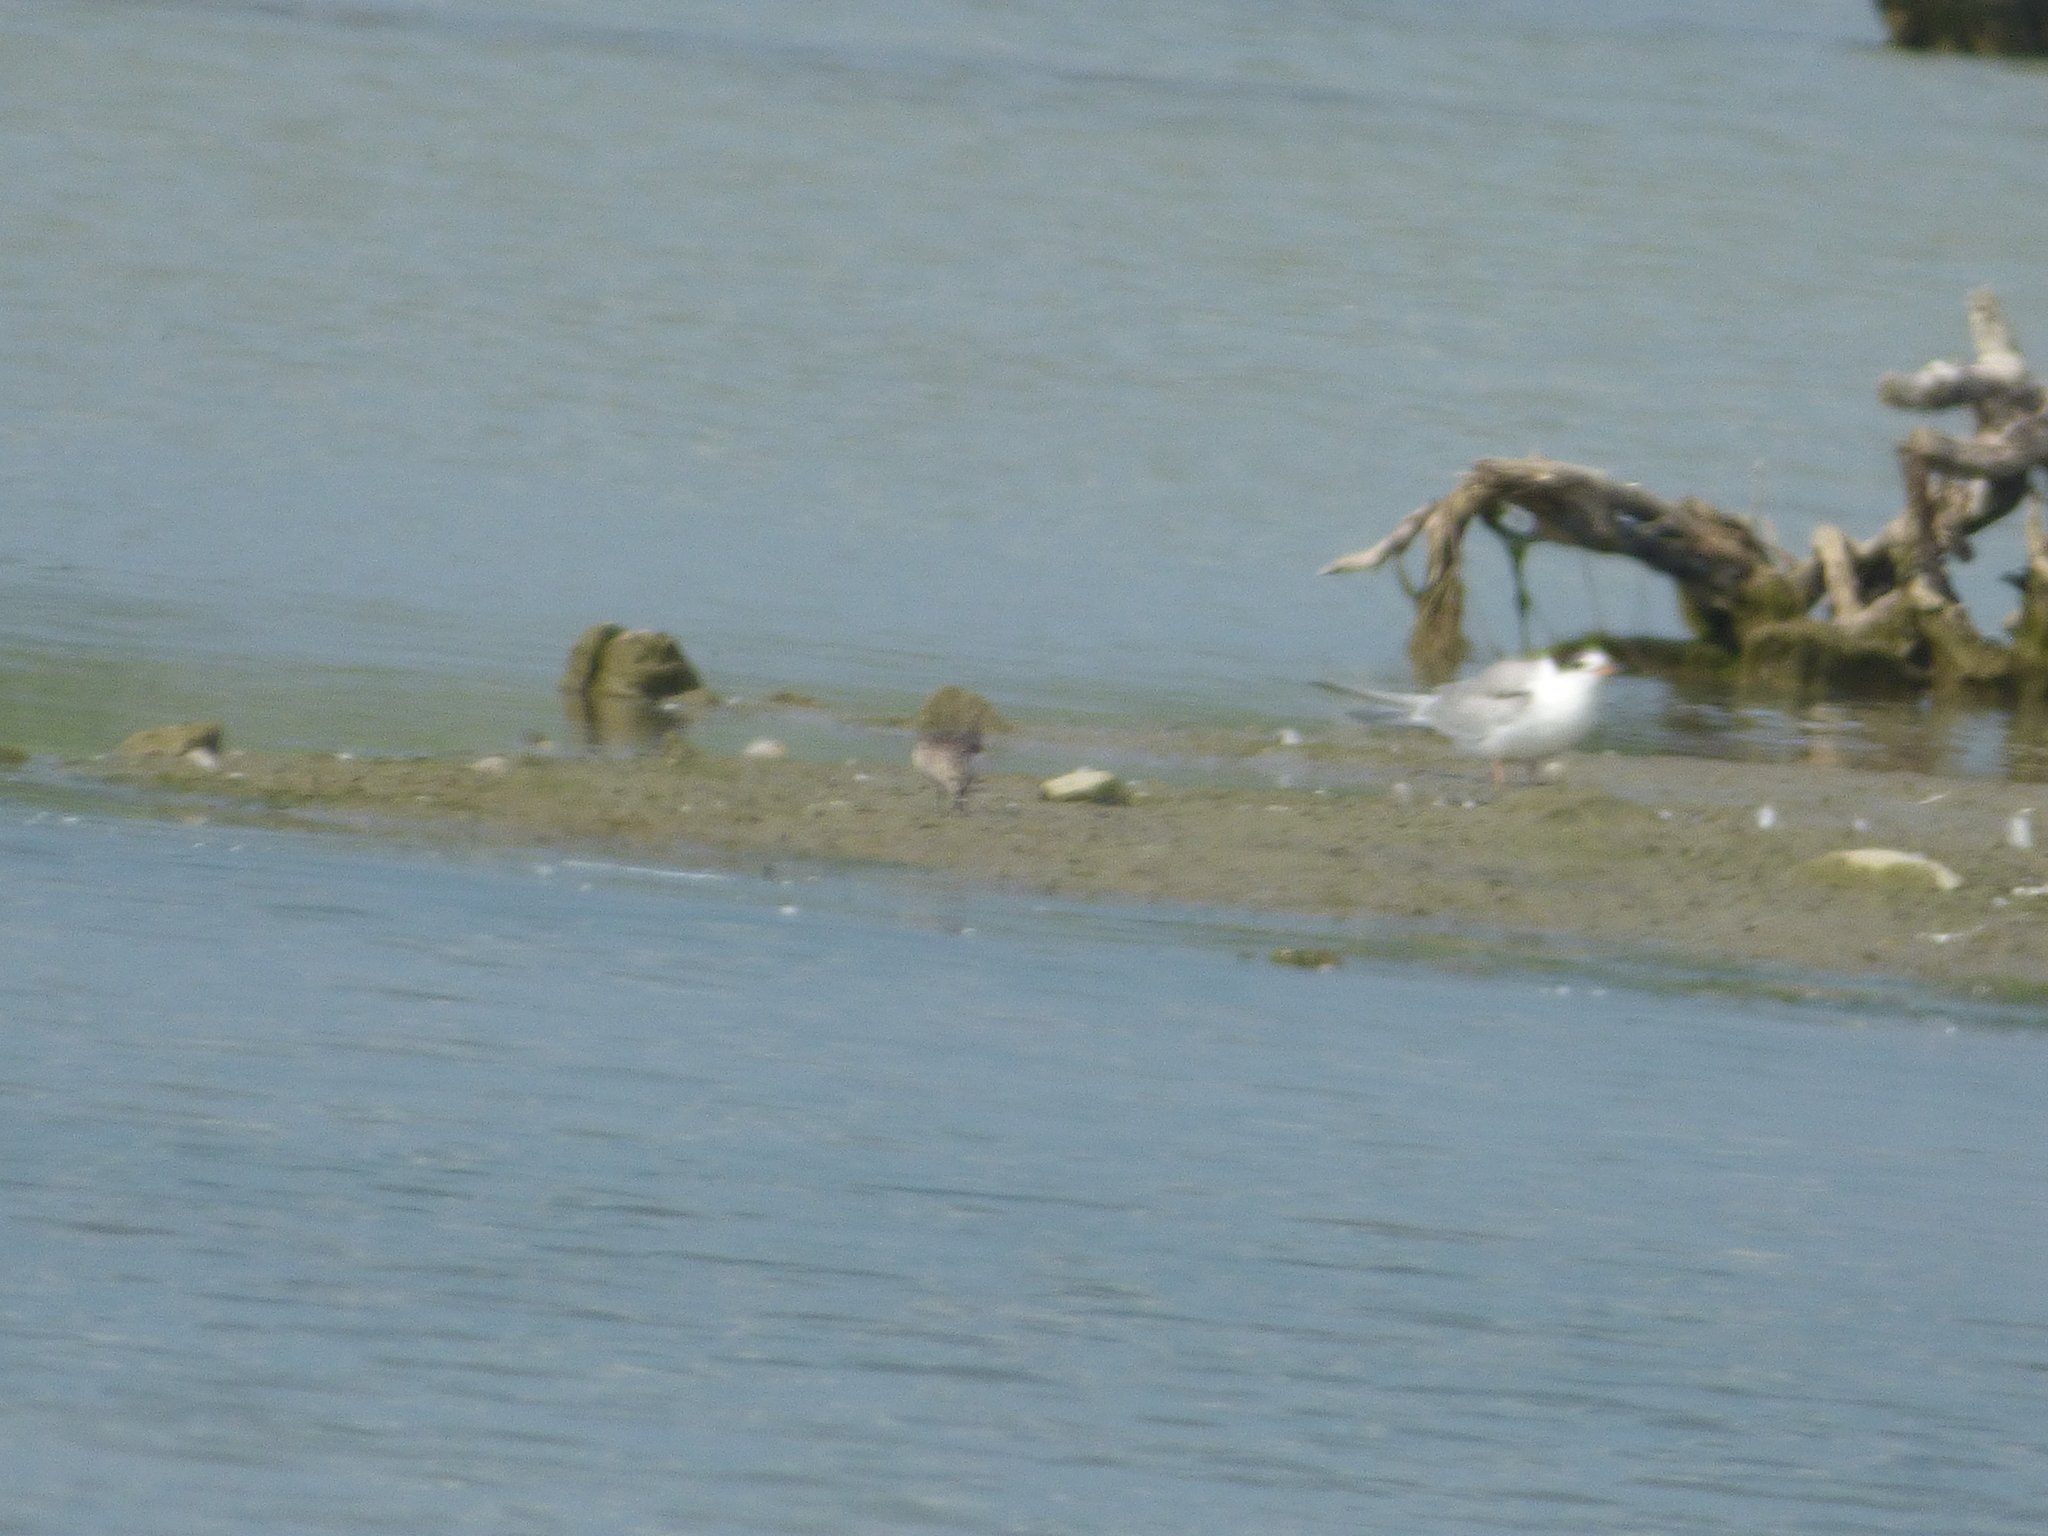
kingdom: Animalia
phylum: Chordata
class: Aves
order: Charadriiformes
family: Laridae
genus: Sterna
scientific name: Sterna hirundo
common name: Common tern
